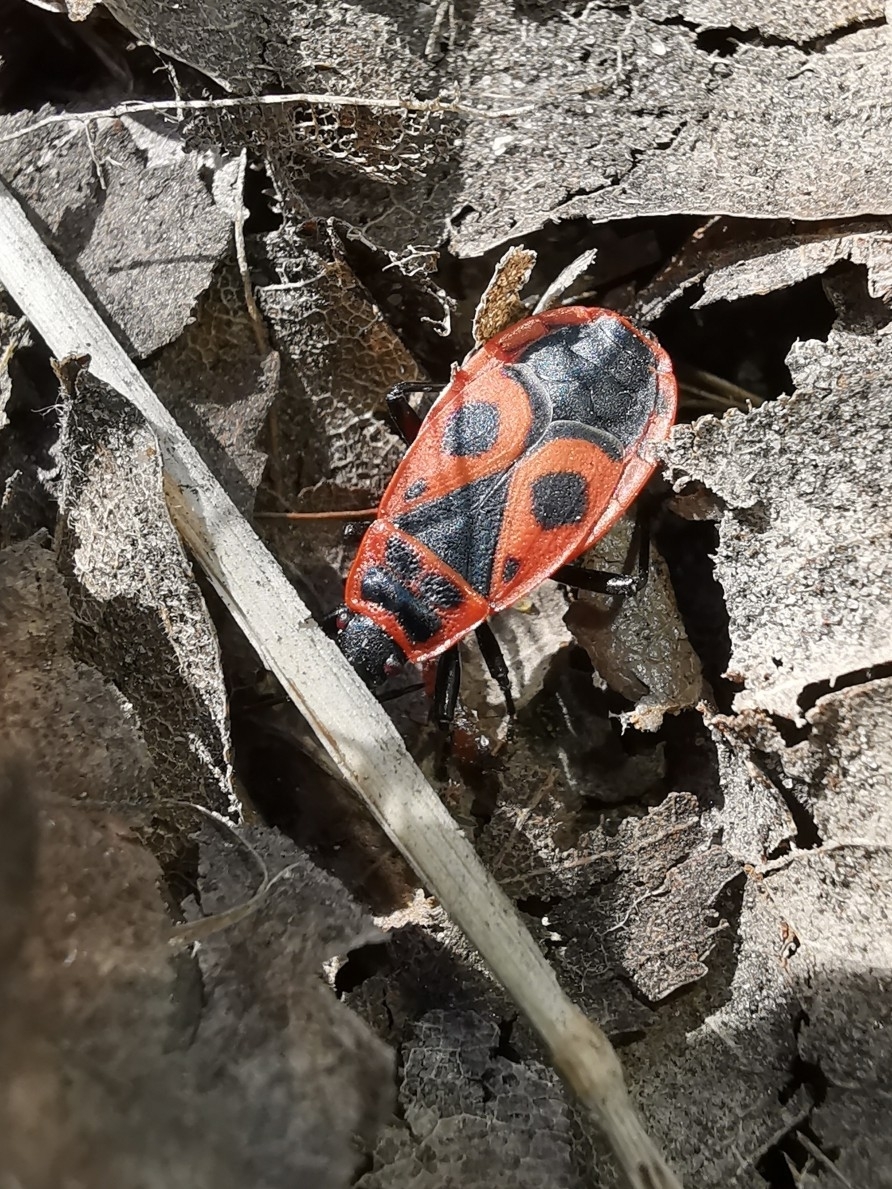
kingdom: Animalia
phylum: Arthropoda
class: Insecta
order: Hemiptera
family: Pyrrhocoridae
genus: Pyrrhocoris
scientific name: Pyrrhocoris apterus
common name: Firebug
